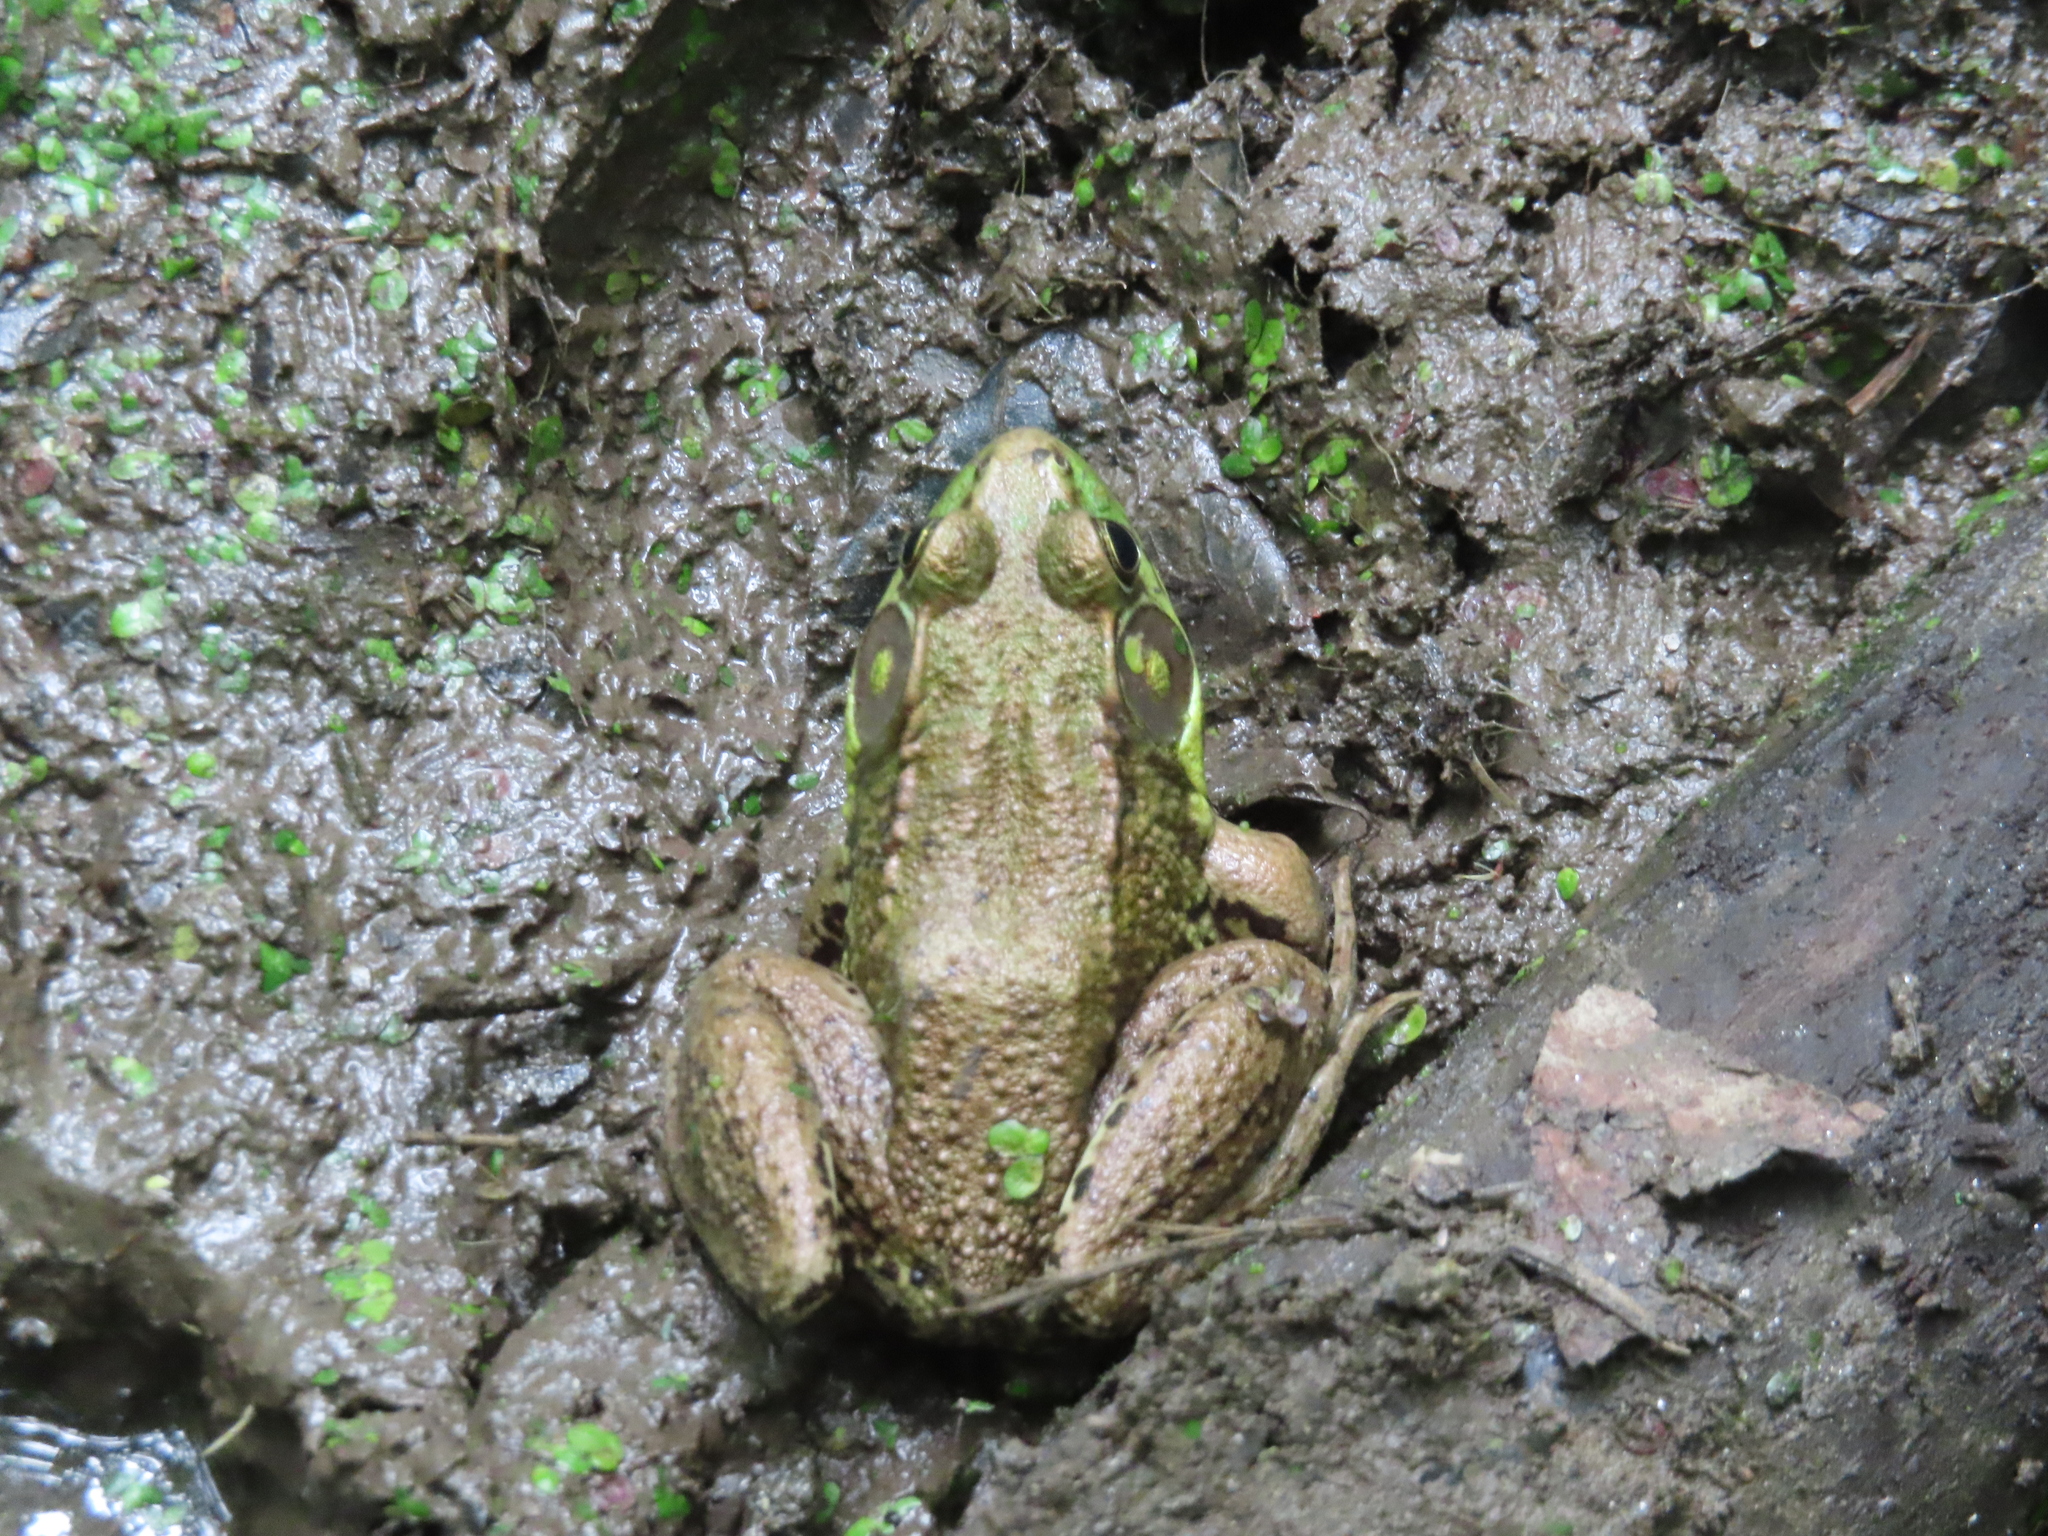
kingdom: Animalia
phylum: Chordata
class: Amphibia
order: Anura
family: Ranidae
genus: Lithobates
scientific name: Lithobates clamitans
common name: Green frog
